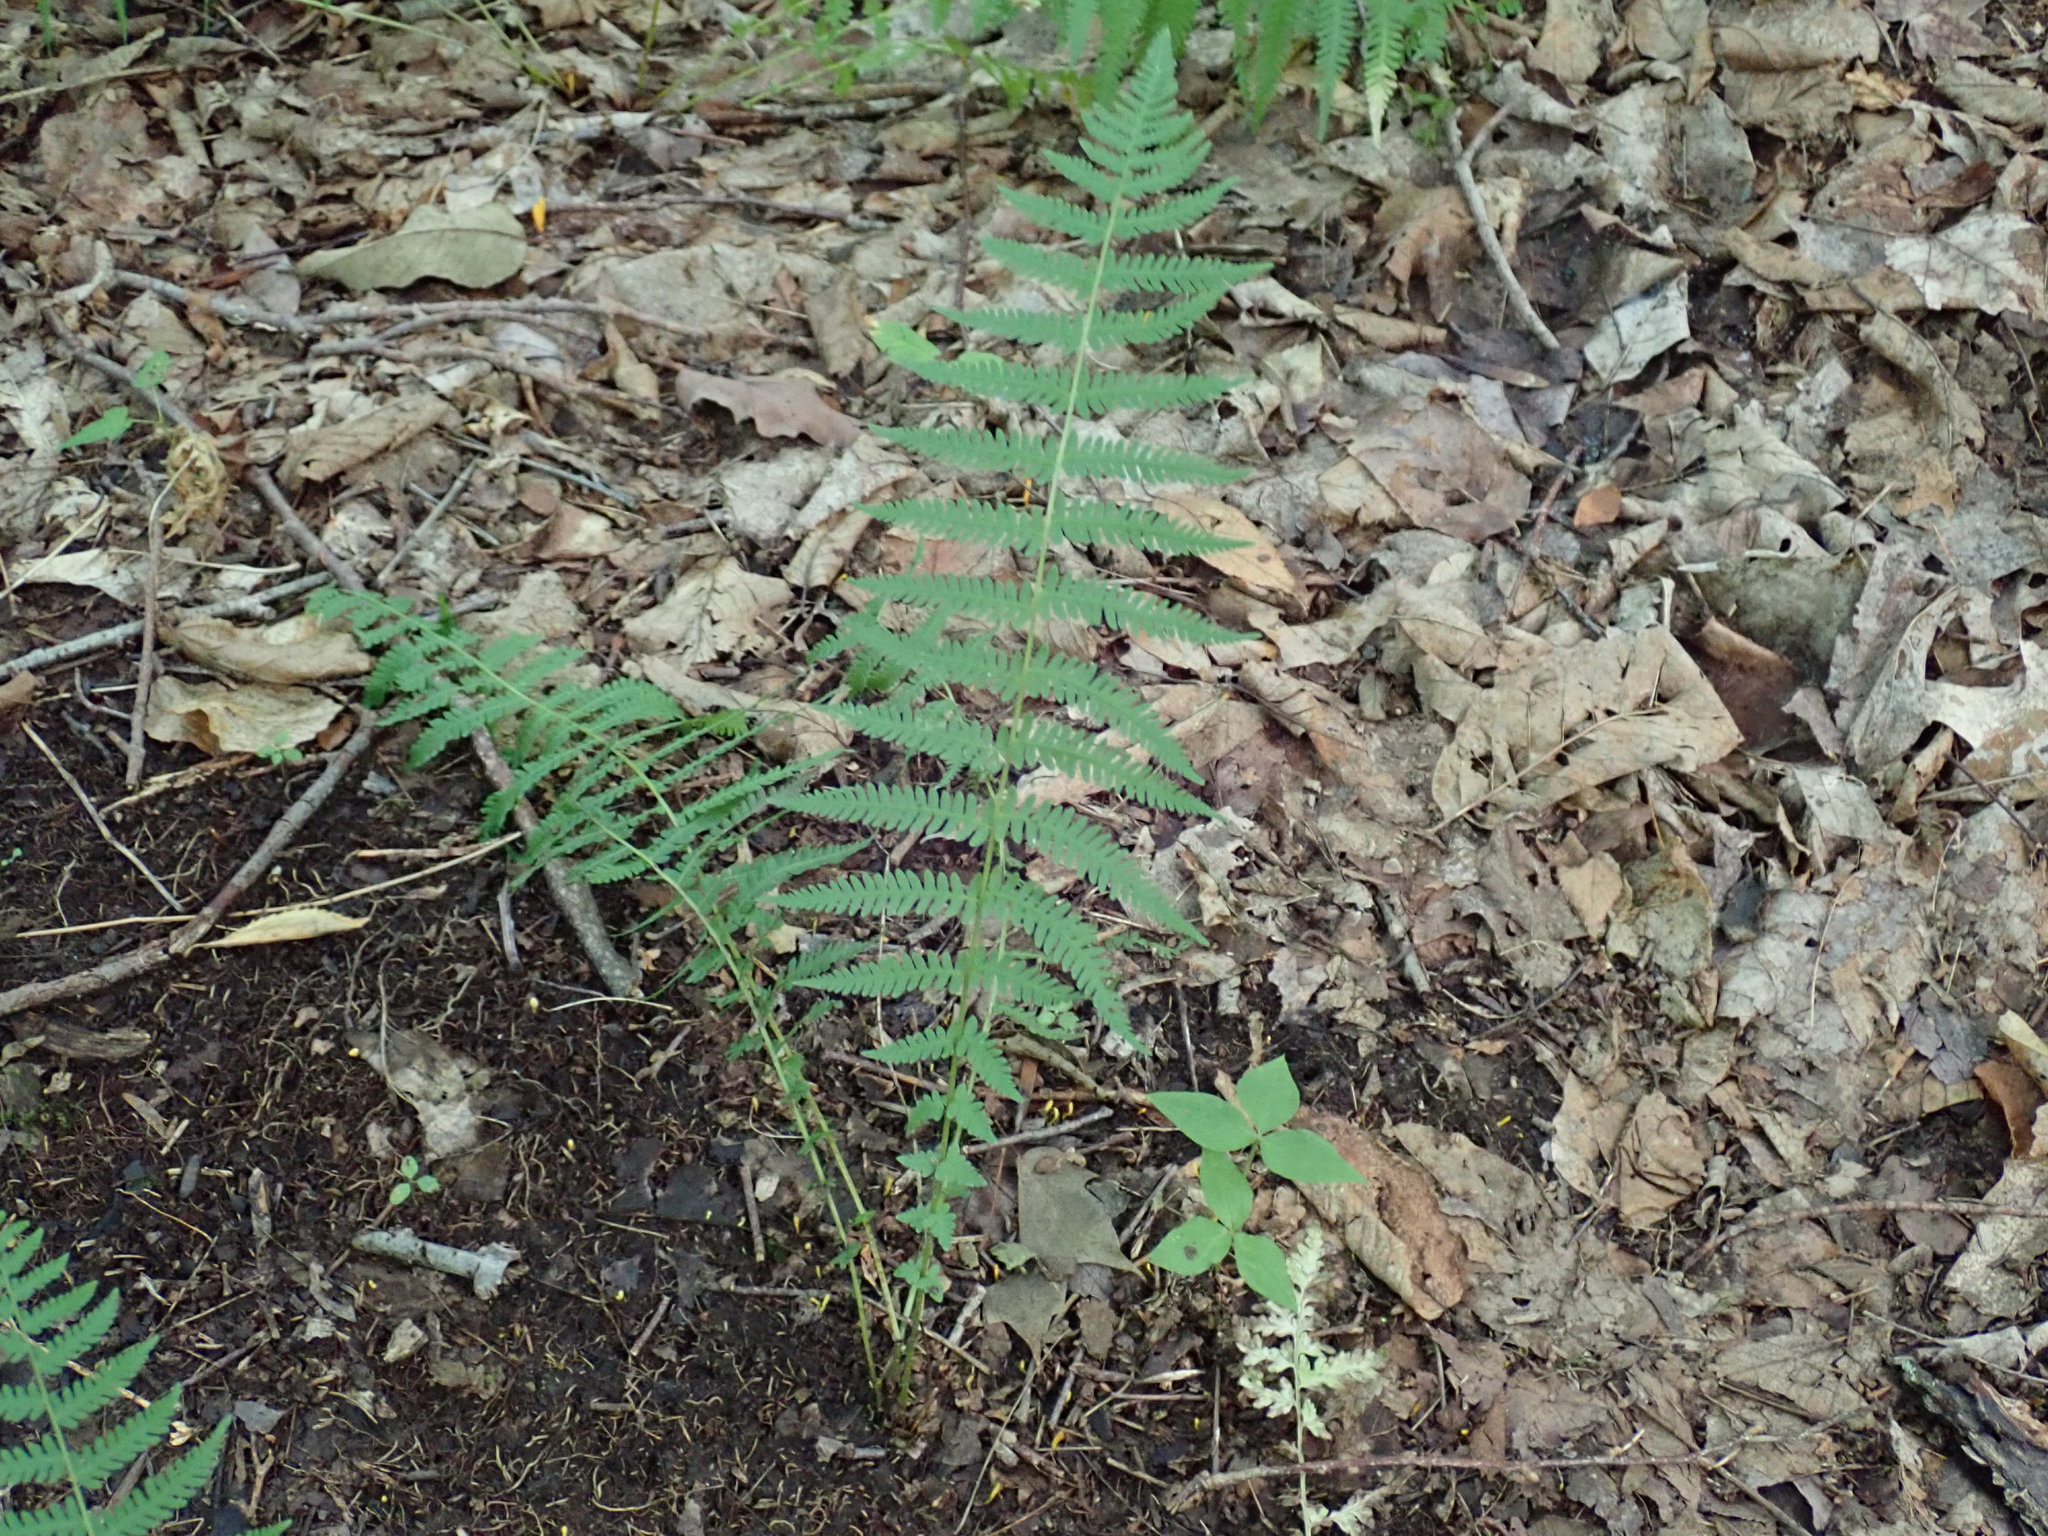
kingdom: Plantae
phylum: Tracheophyta
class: Polypodiopsida
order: Polypodiales
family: Thelypteridaceae
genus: Amauropelta
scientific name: Amauropelta noveboracensis
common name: New york fern
